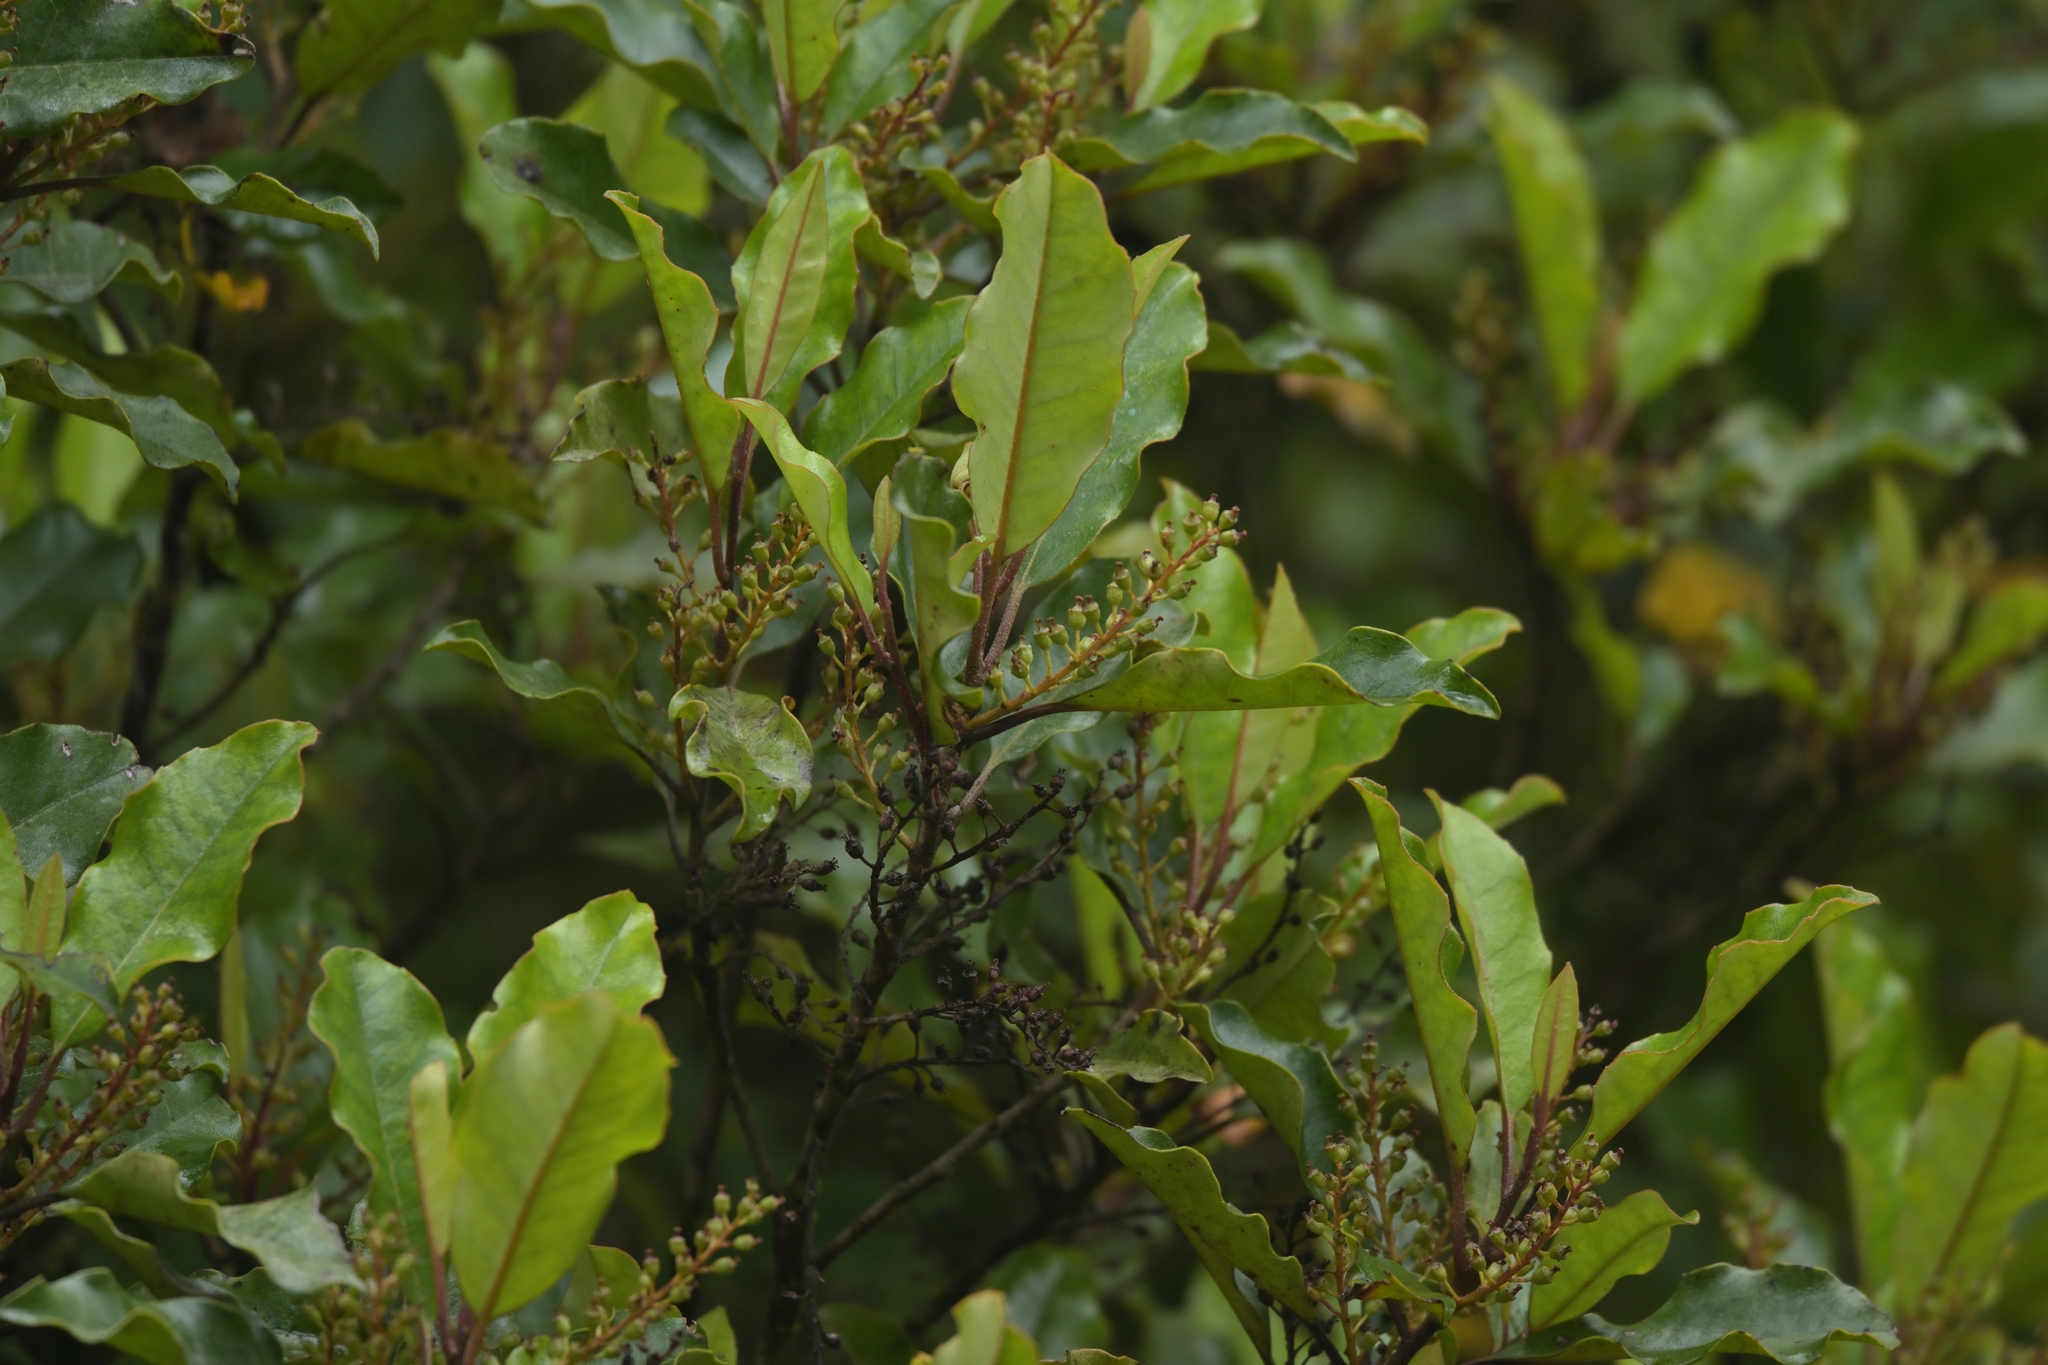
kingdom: Plantae
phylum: Tracheophyta
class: Magnoliopsida
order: Paracryphiales
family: Paracryphiaceae
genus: Quintinia
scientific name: Quintinia serrata
